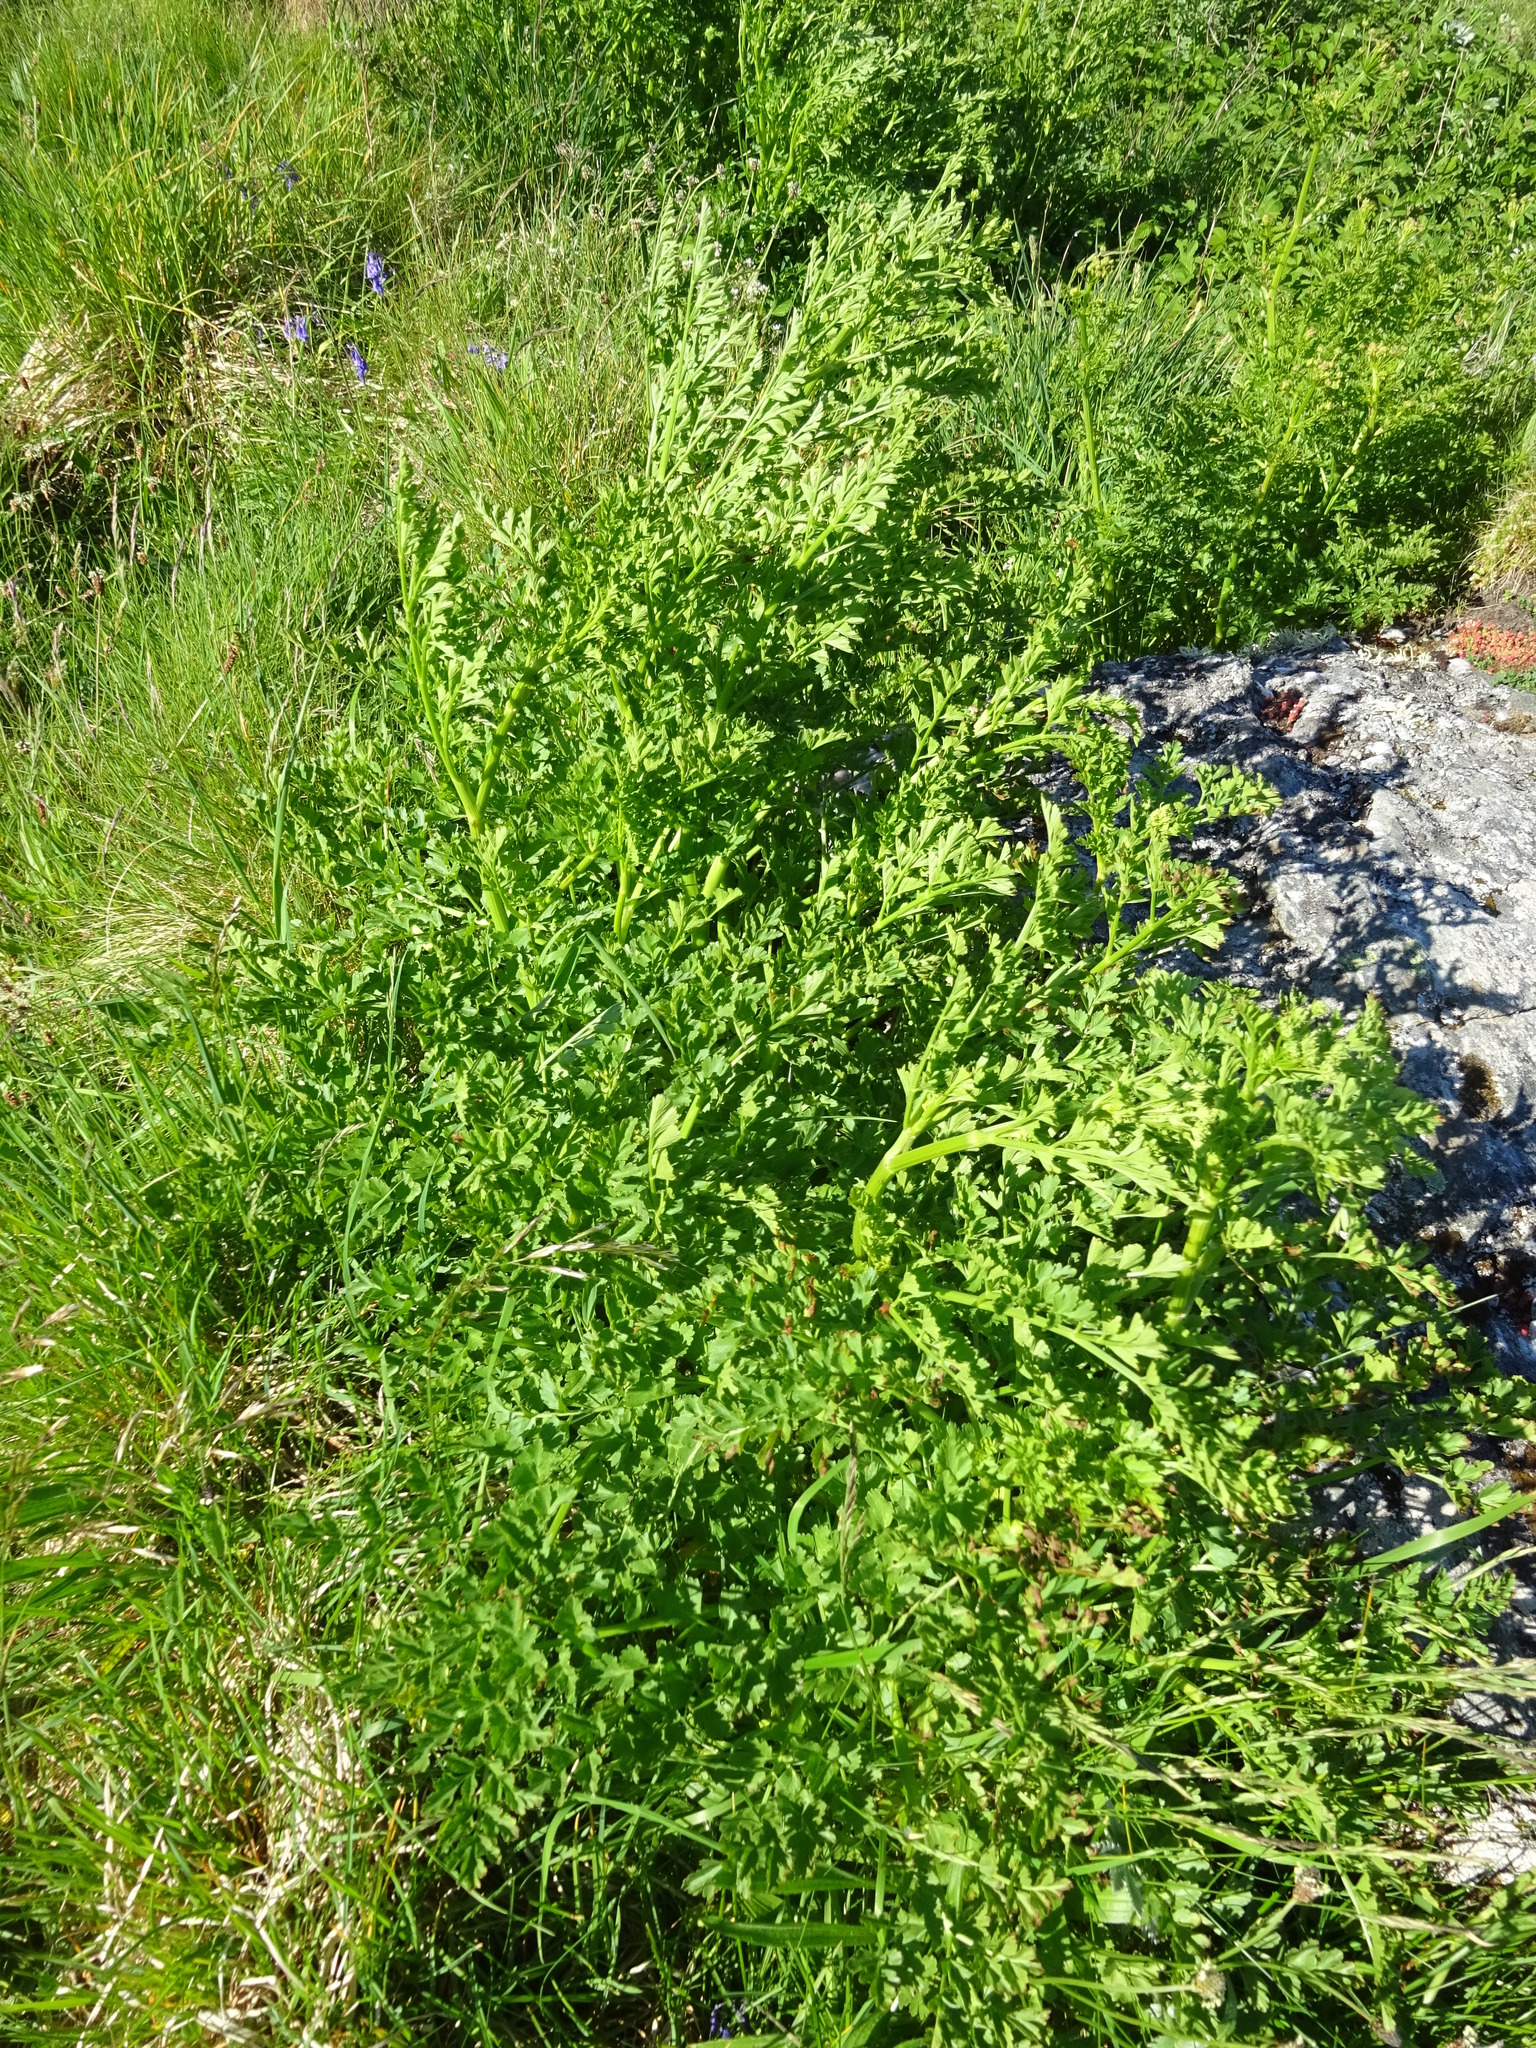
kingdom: Plantae
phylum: Tracheophyta
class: Magnoliopsida
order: Apiales
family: Apiaceae
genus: Oenanthe
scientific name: Oenanthe crocata
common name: Hemlock water-dropwort
